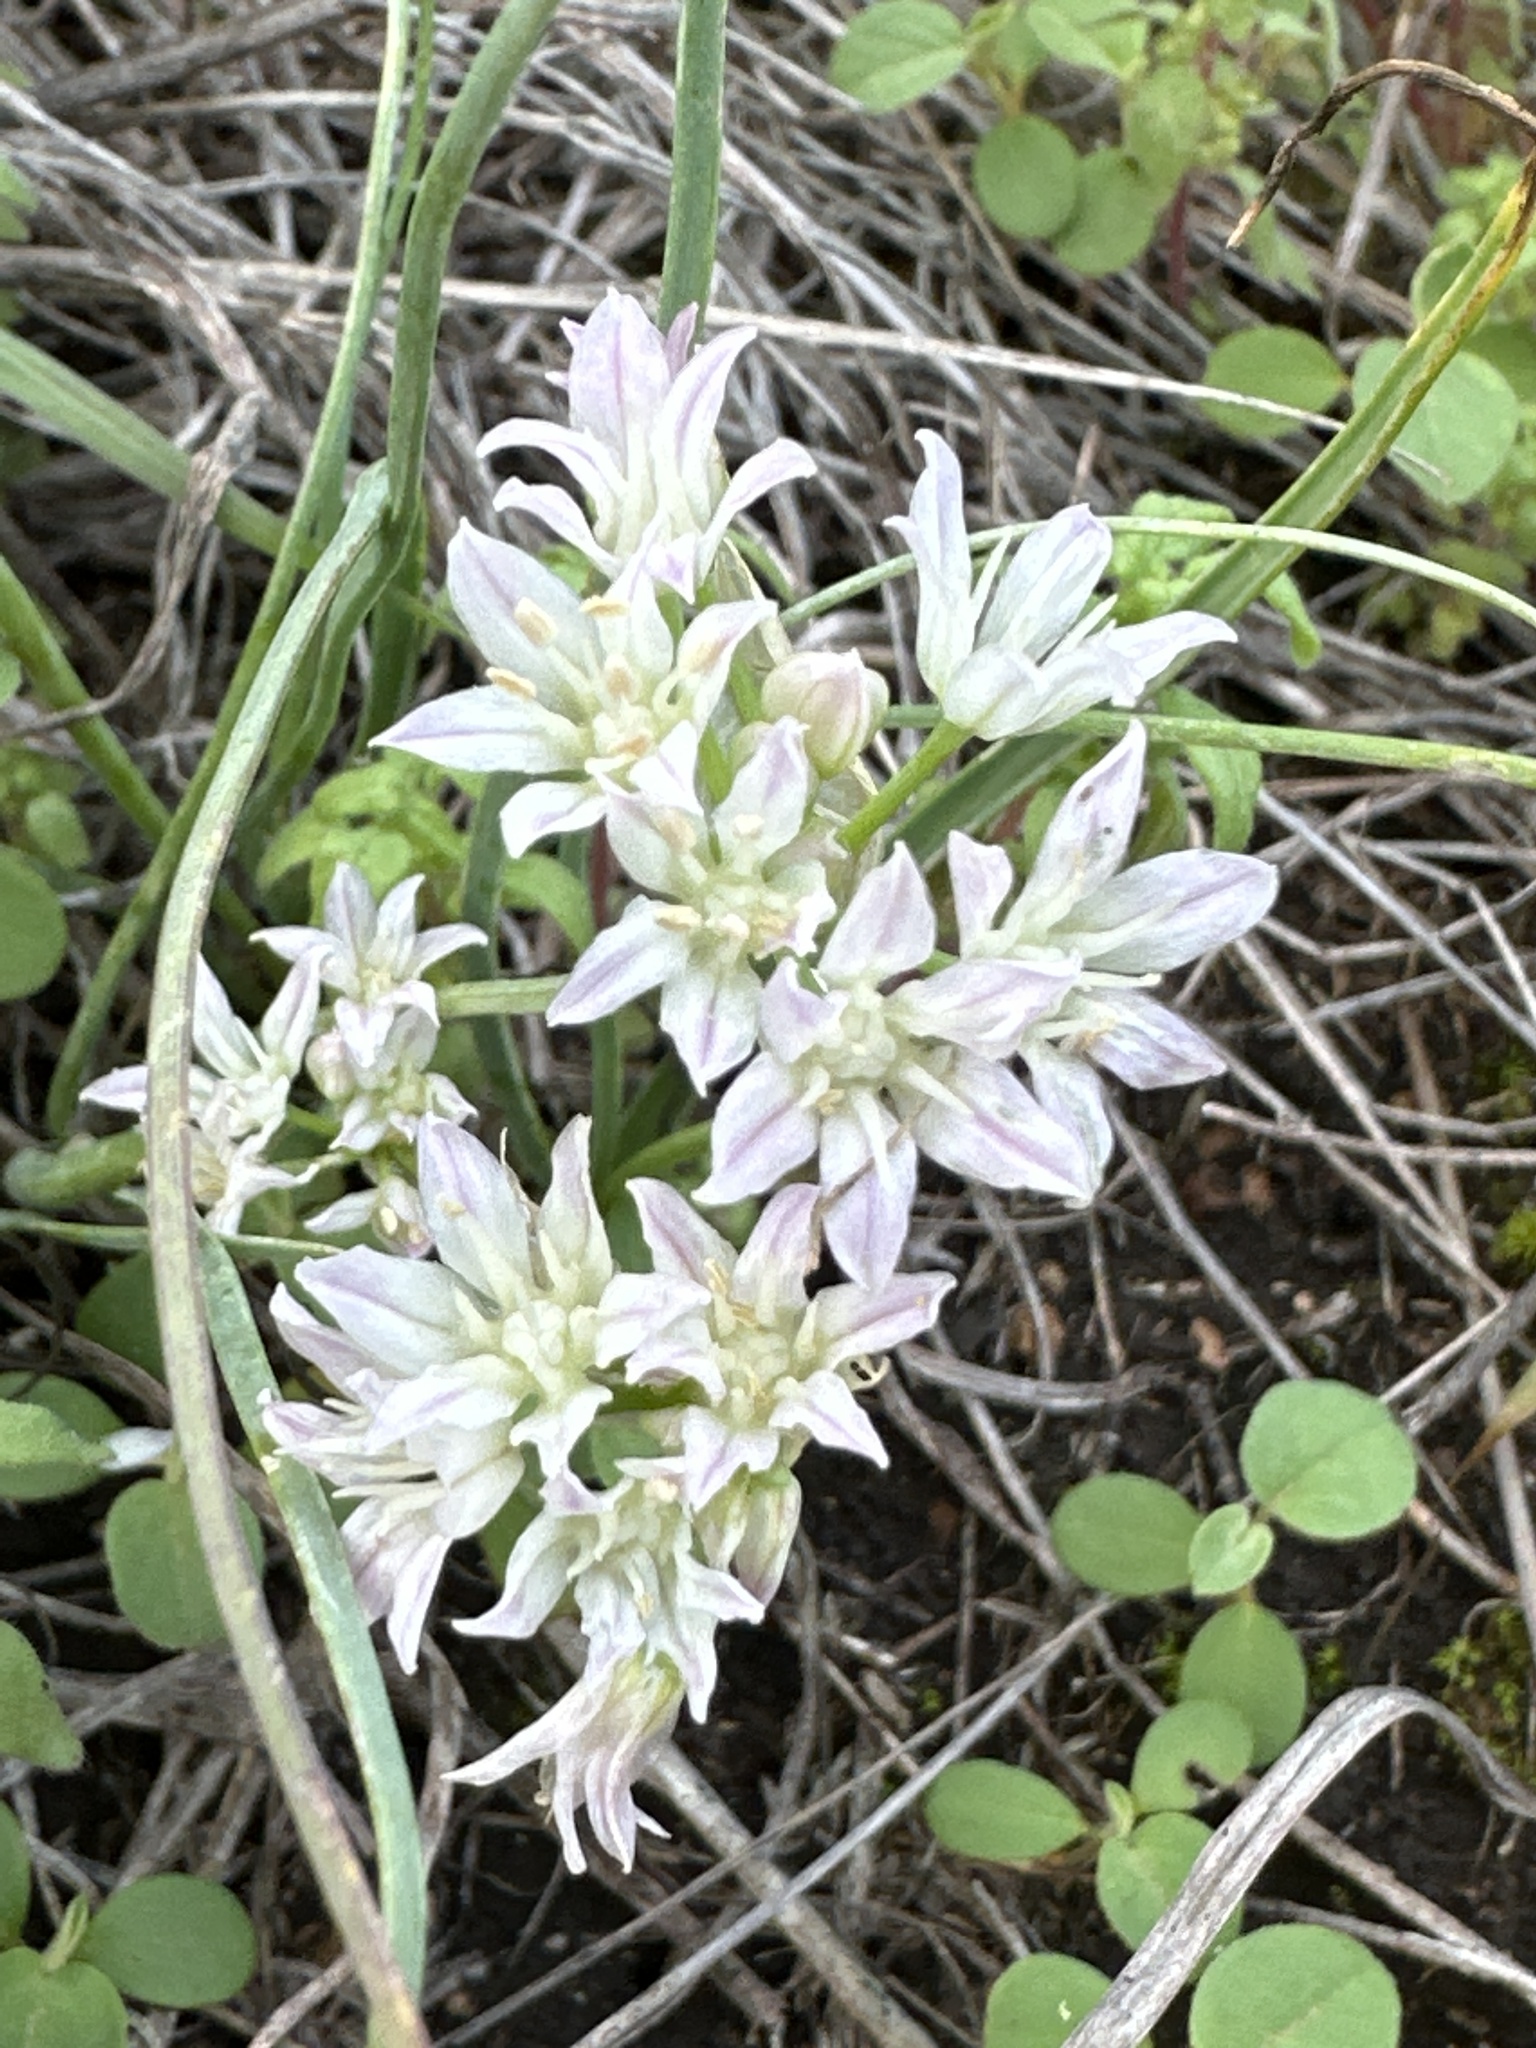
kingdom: Plantae
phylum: Tracheophyta
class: Liliopsida
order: Asparagales
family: Amaryllidaceae
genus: Allium
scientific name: Allium drummondii
